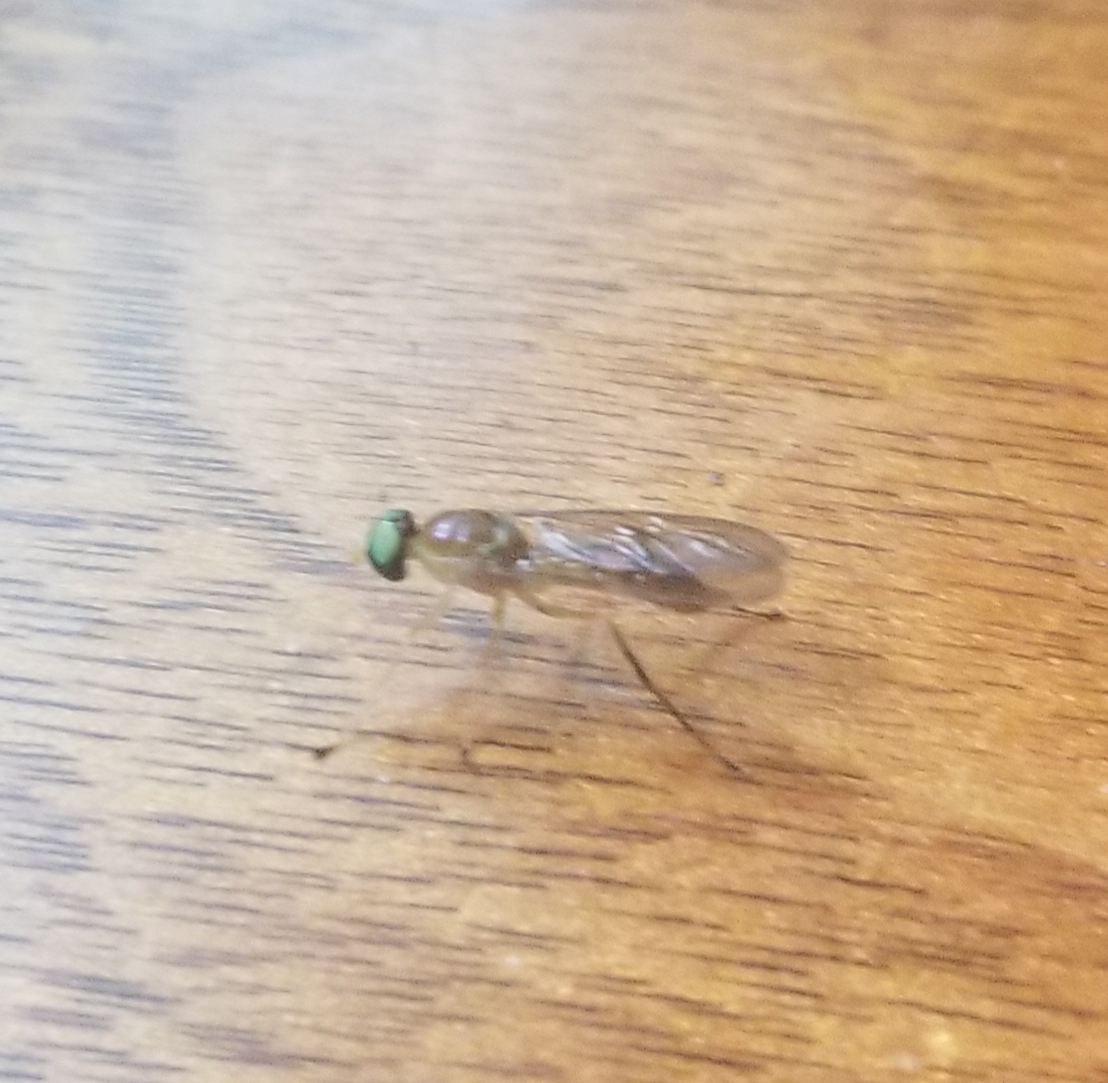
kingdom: Animalia
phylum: Arthropoda
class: Insecta
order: Diptera
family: Stratiomyidae
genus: Ptecticus
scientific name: Ptecticus trivittatus
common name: Compost fly
